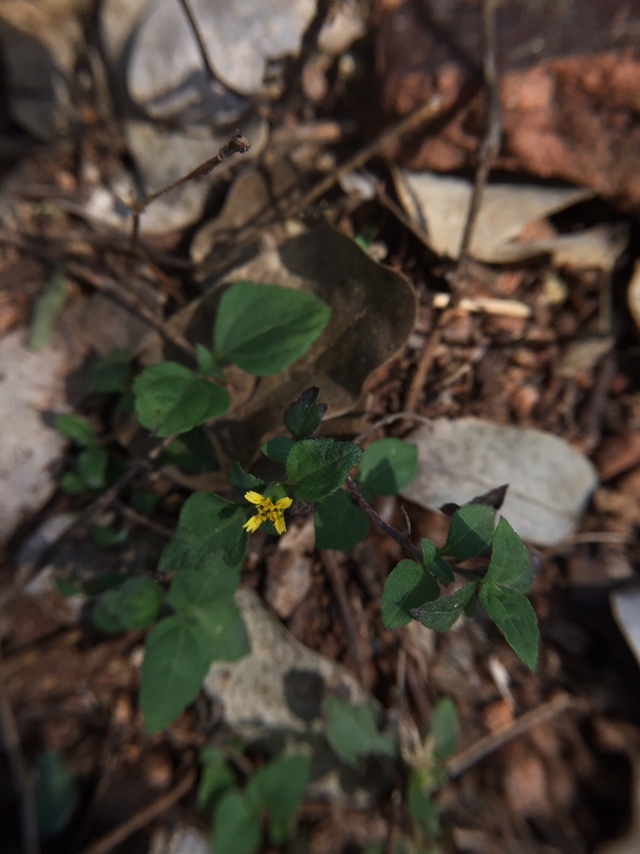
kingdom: Plantae
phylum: Tracheophyta
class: Magnoliopsida
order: Asterales
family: Asteraceae
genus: Synedrella
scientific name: Synedrella nodiflora
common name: Nodeweed
